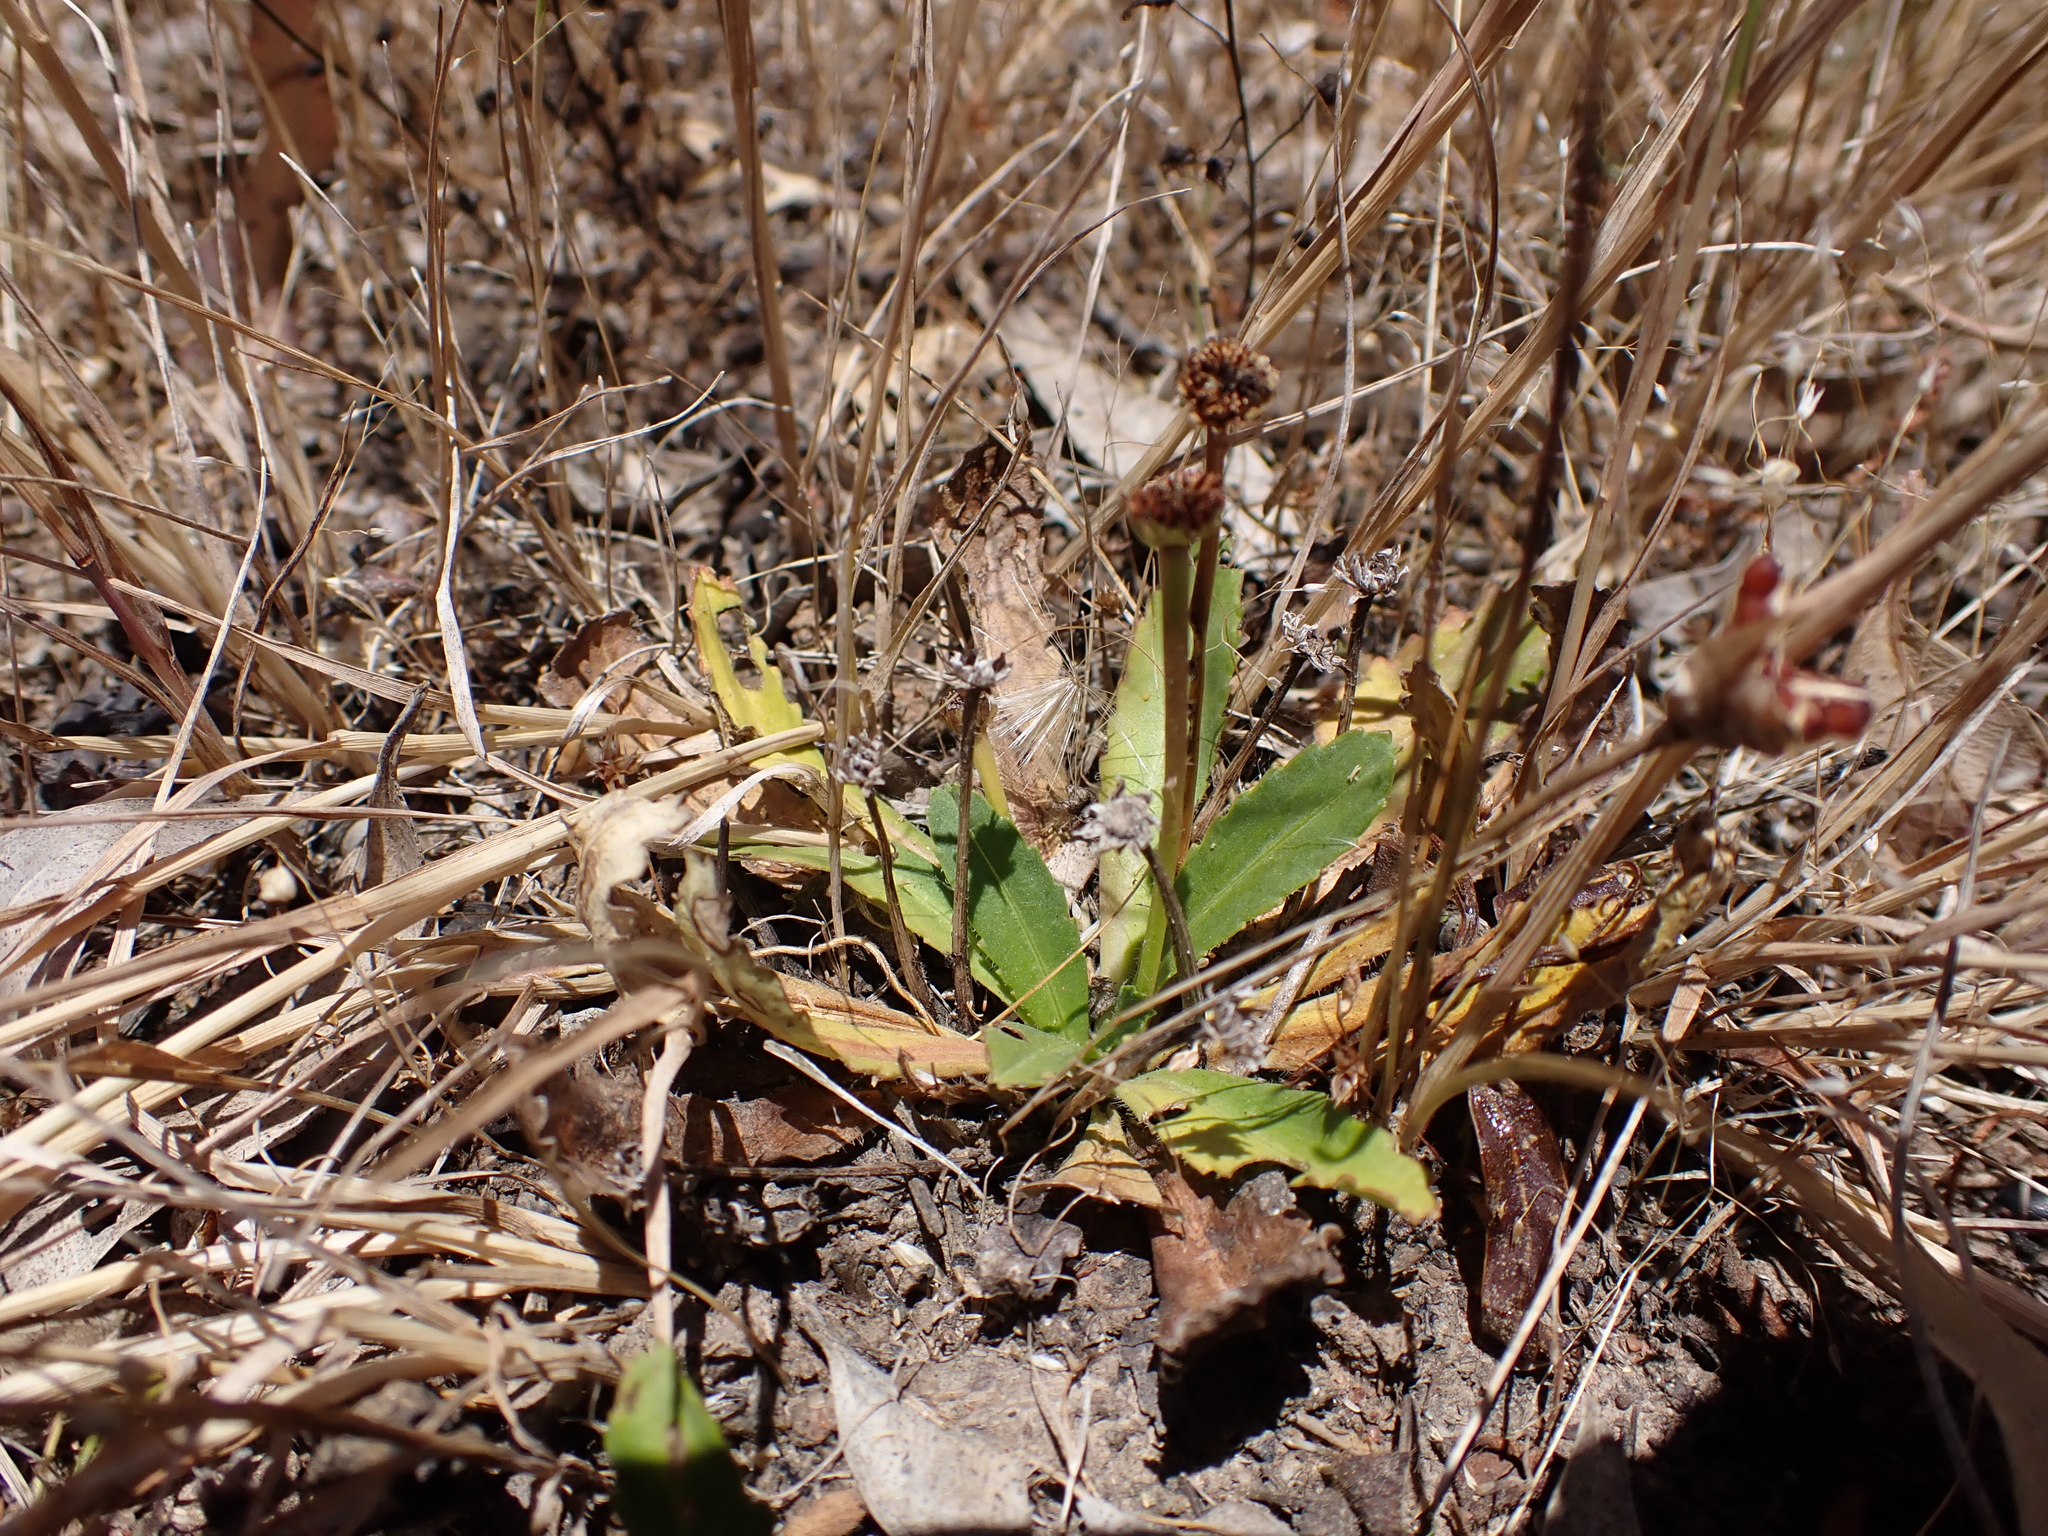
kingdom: Plantae
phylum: Tracheophyta
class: Magnoliopsida
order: Asterales
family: Asteraceae
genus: Solenogyne
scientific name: Solenogyne dominii
